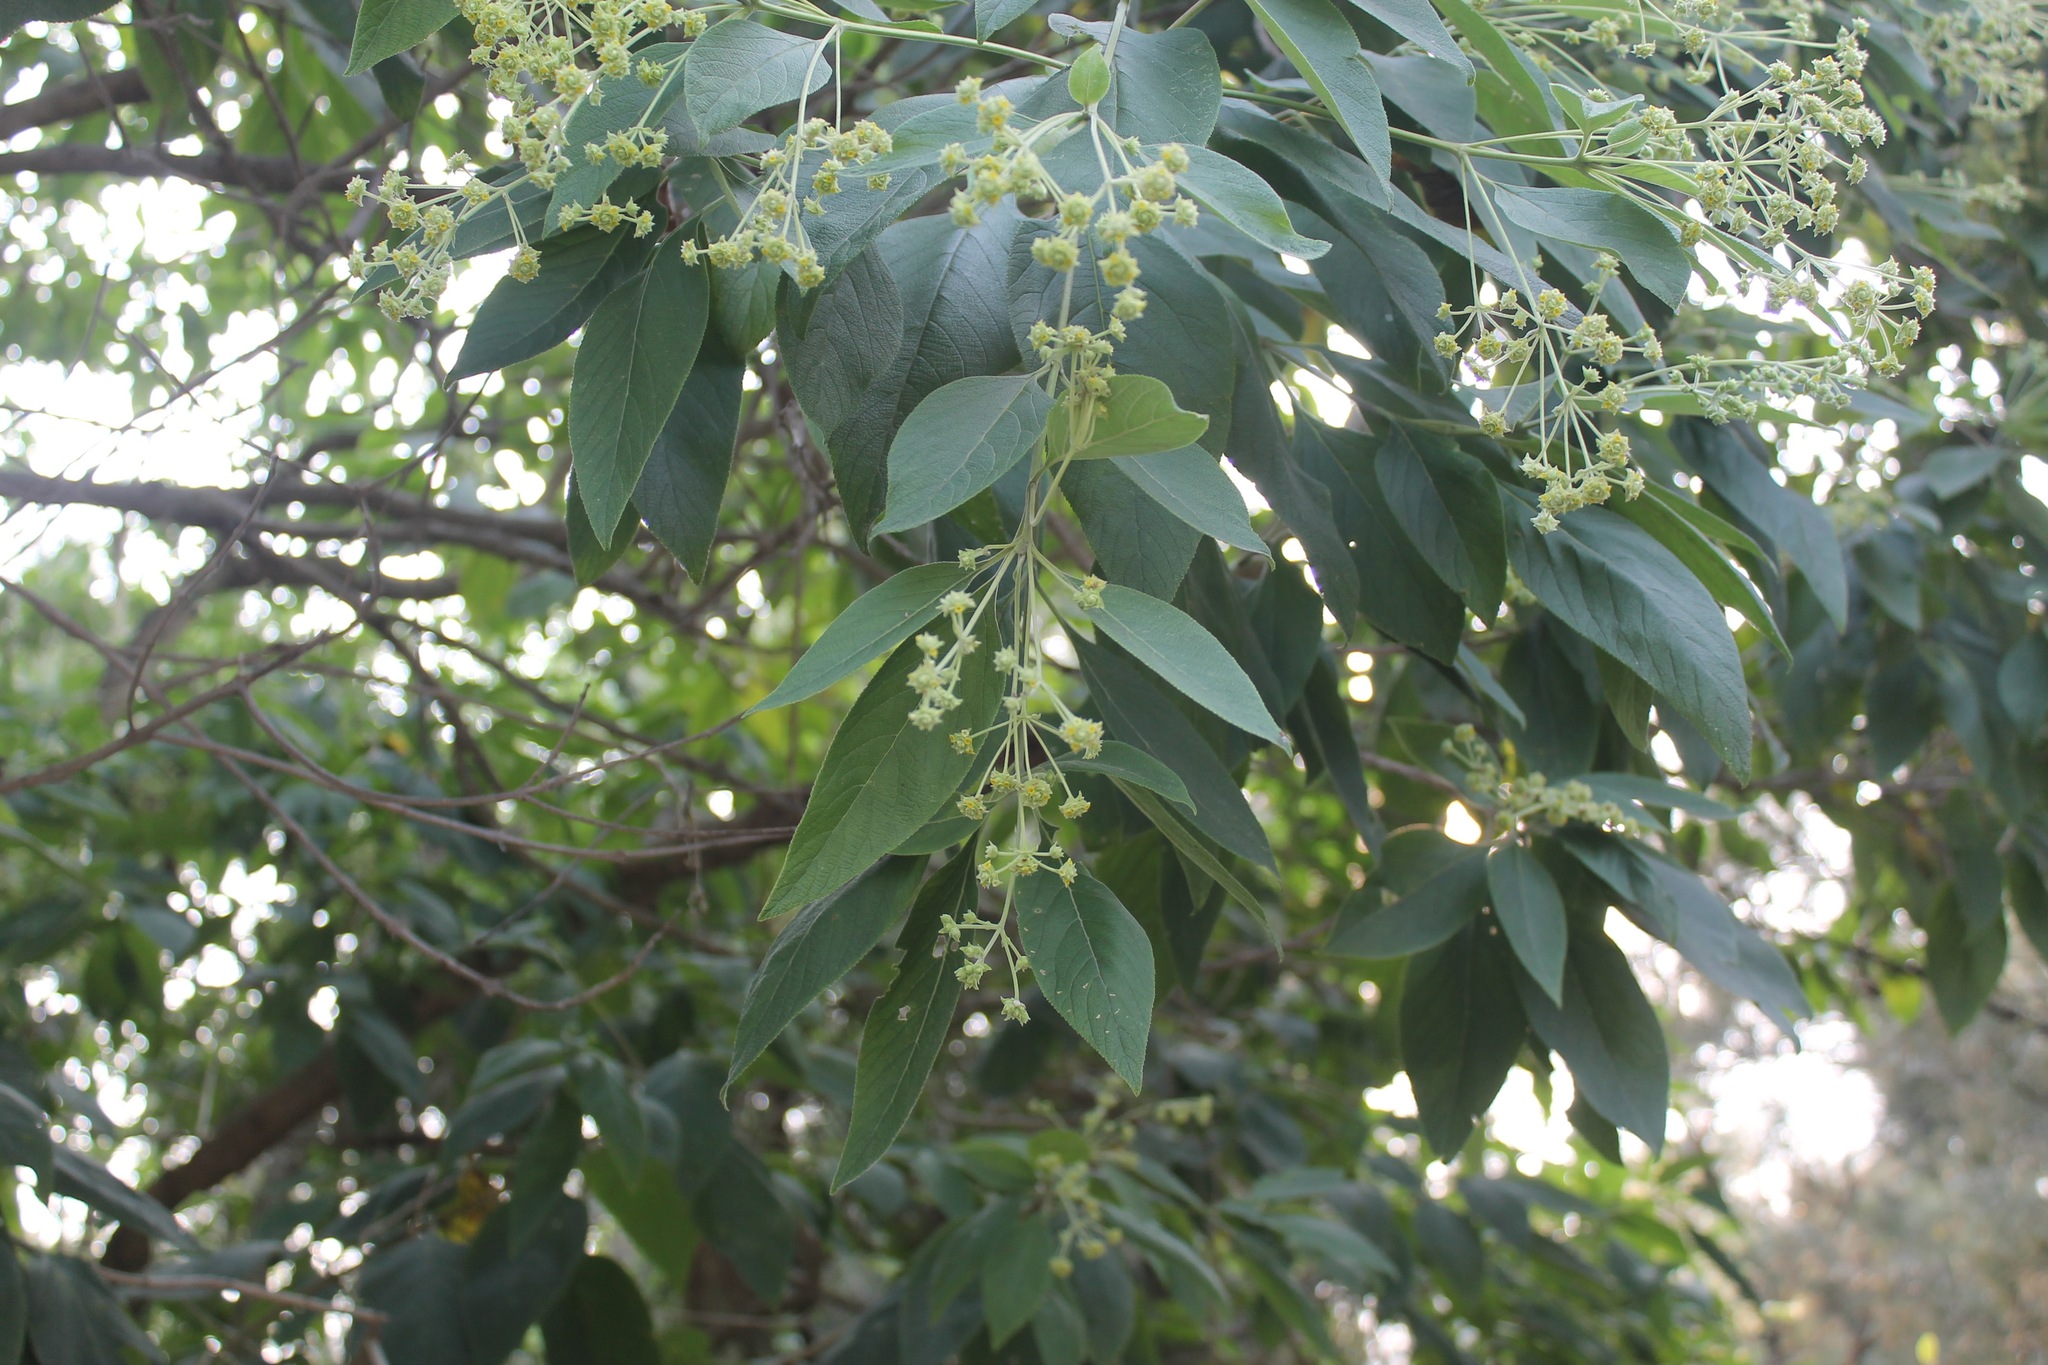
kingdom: Plantae
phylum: Tracheophyta
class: Magnoliopsida
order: Lamiales
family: Verbenaceae
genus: Lippia
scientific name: Lippia umbellata
